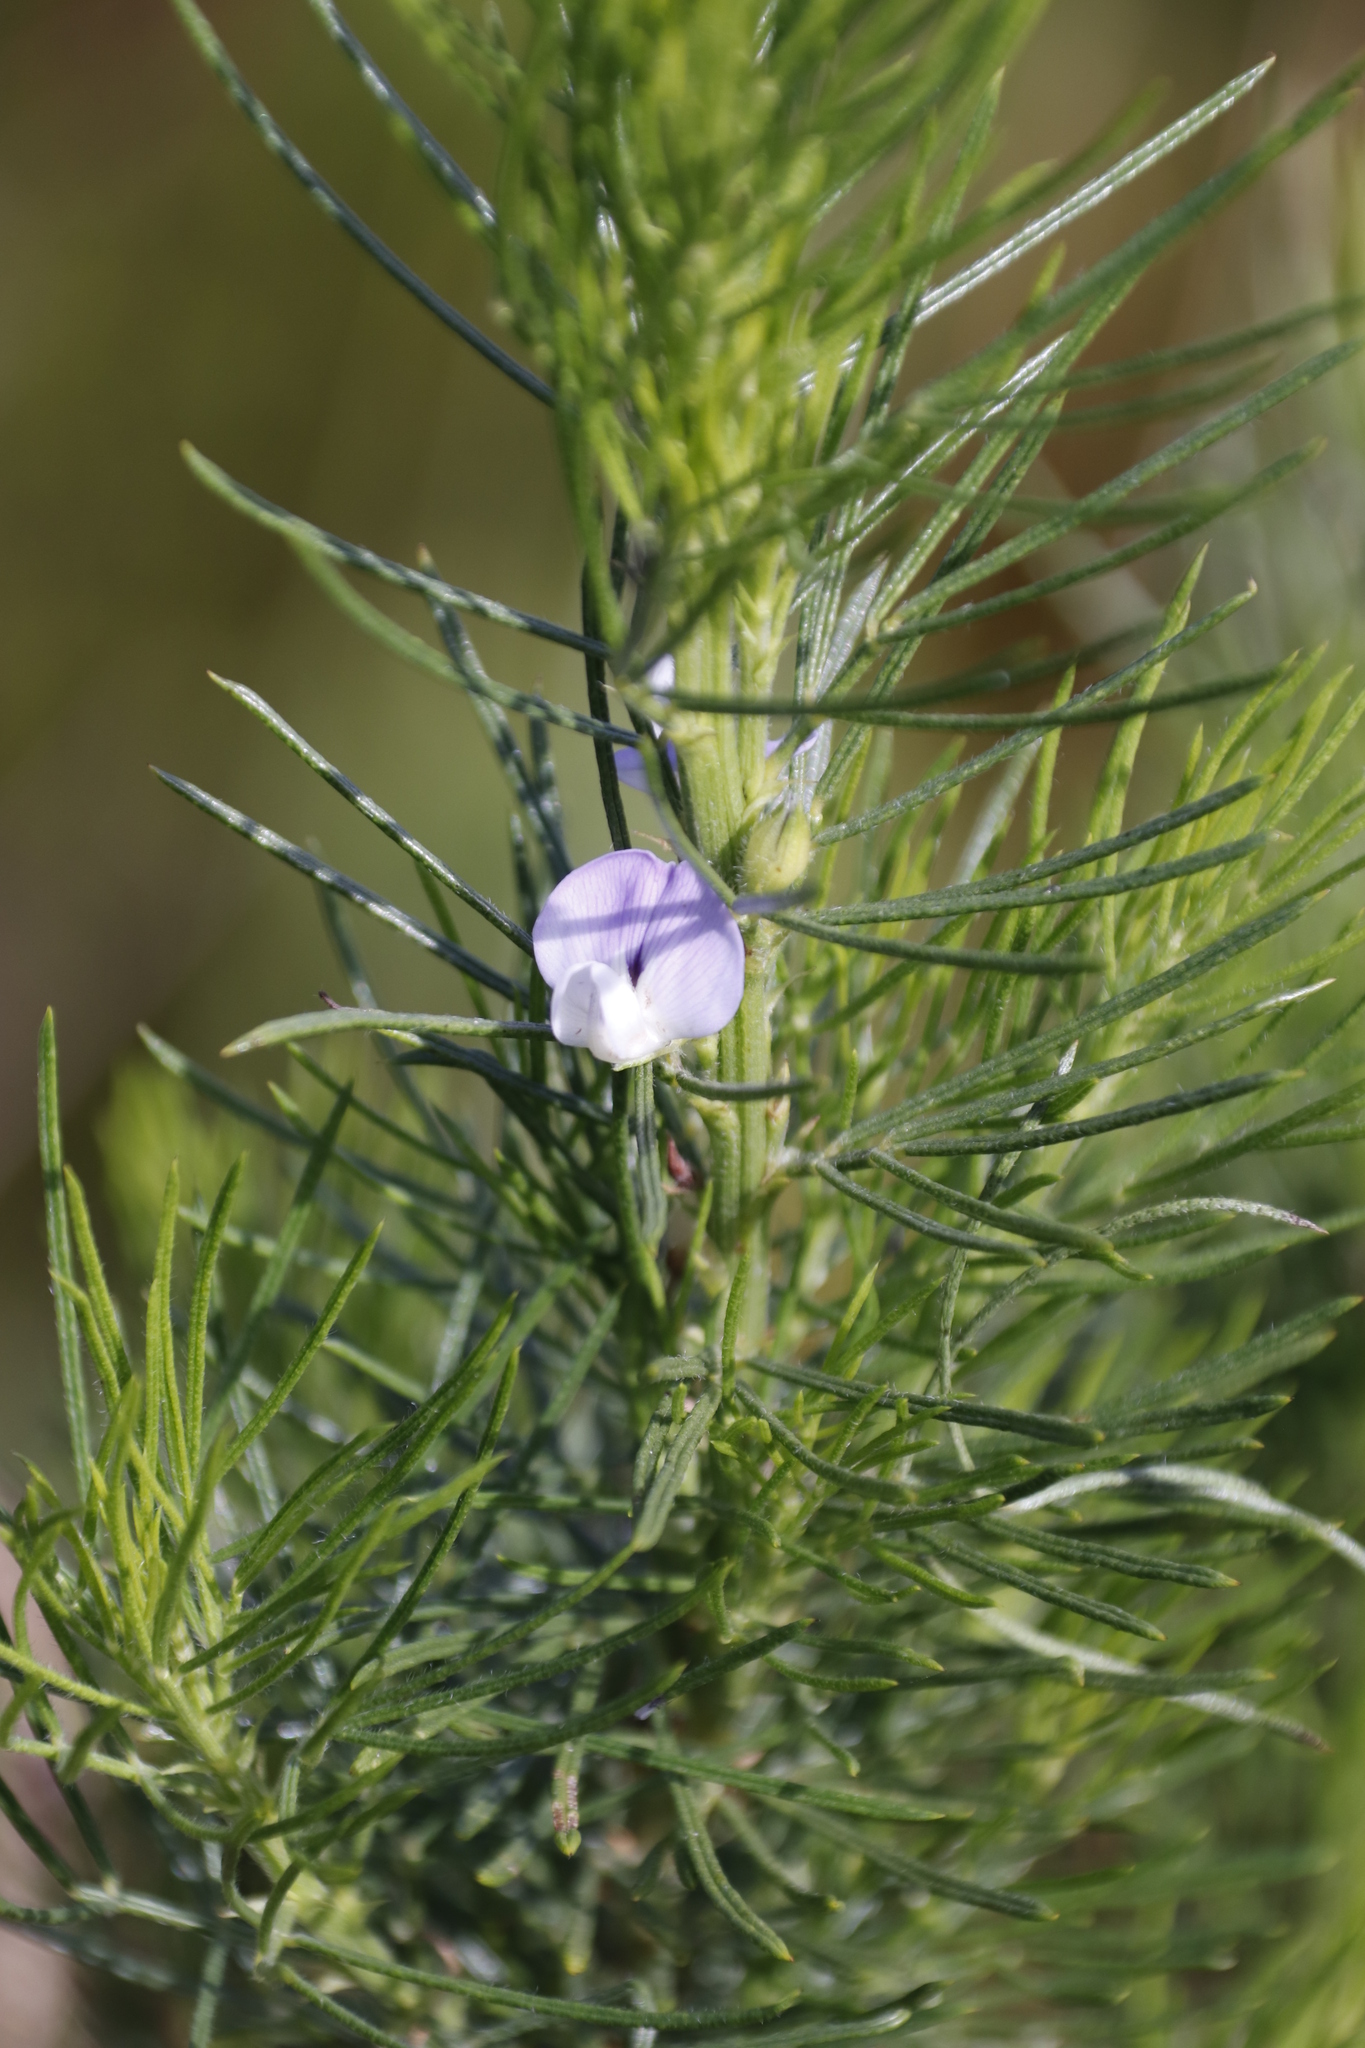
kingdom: Plantae
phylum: Tracheophyta
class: Magnoliopsida
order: Fabales
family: Fabaceae
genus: Psoralea
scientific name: Psoralea pinnata
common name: African scurfpea
